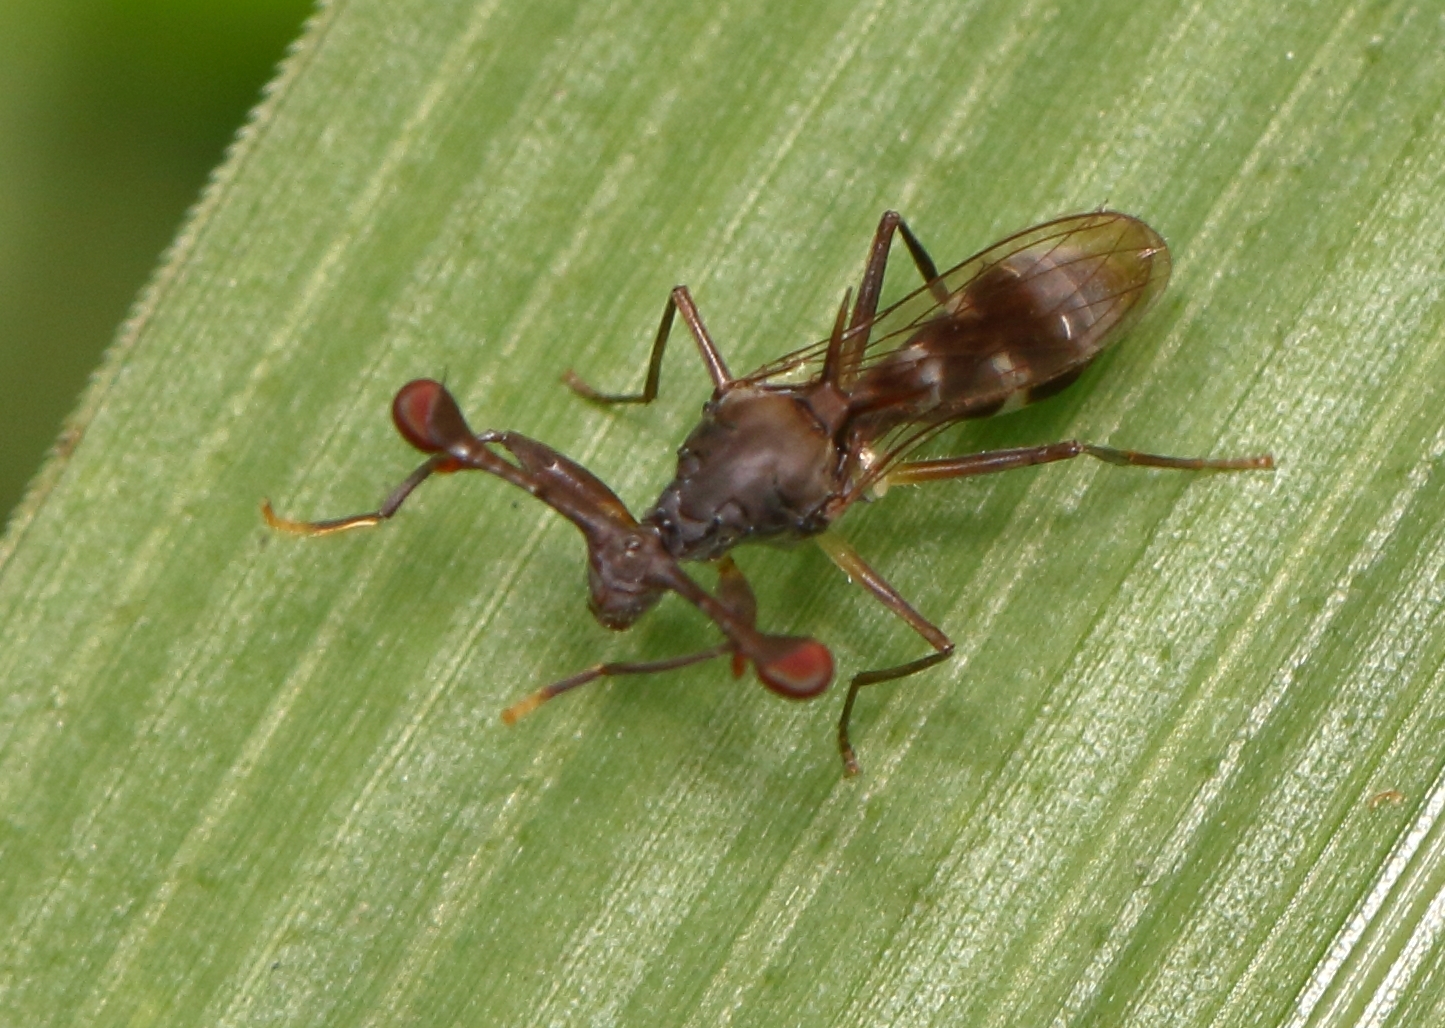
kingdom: Animalia
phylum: Arthropoda
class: Insecta
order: Diptera
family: Diopsidae
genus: Diasemopsis
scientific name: Diasemopsis obstans
